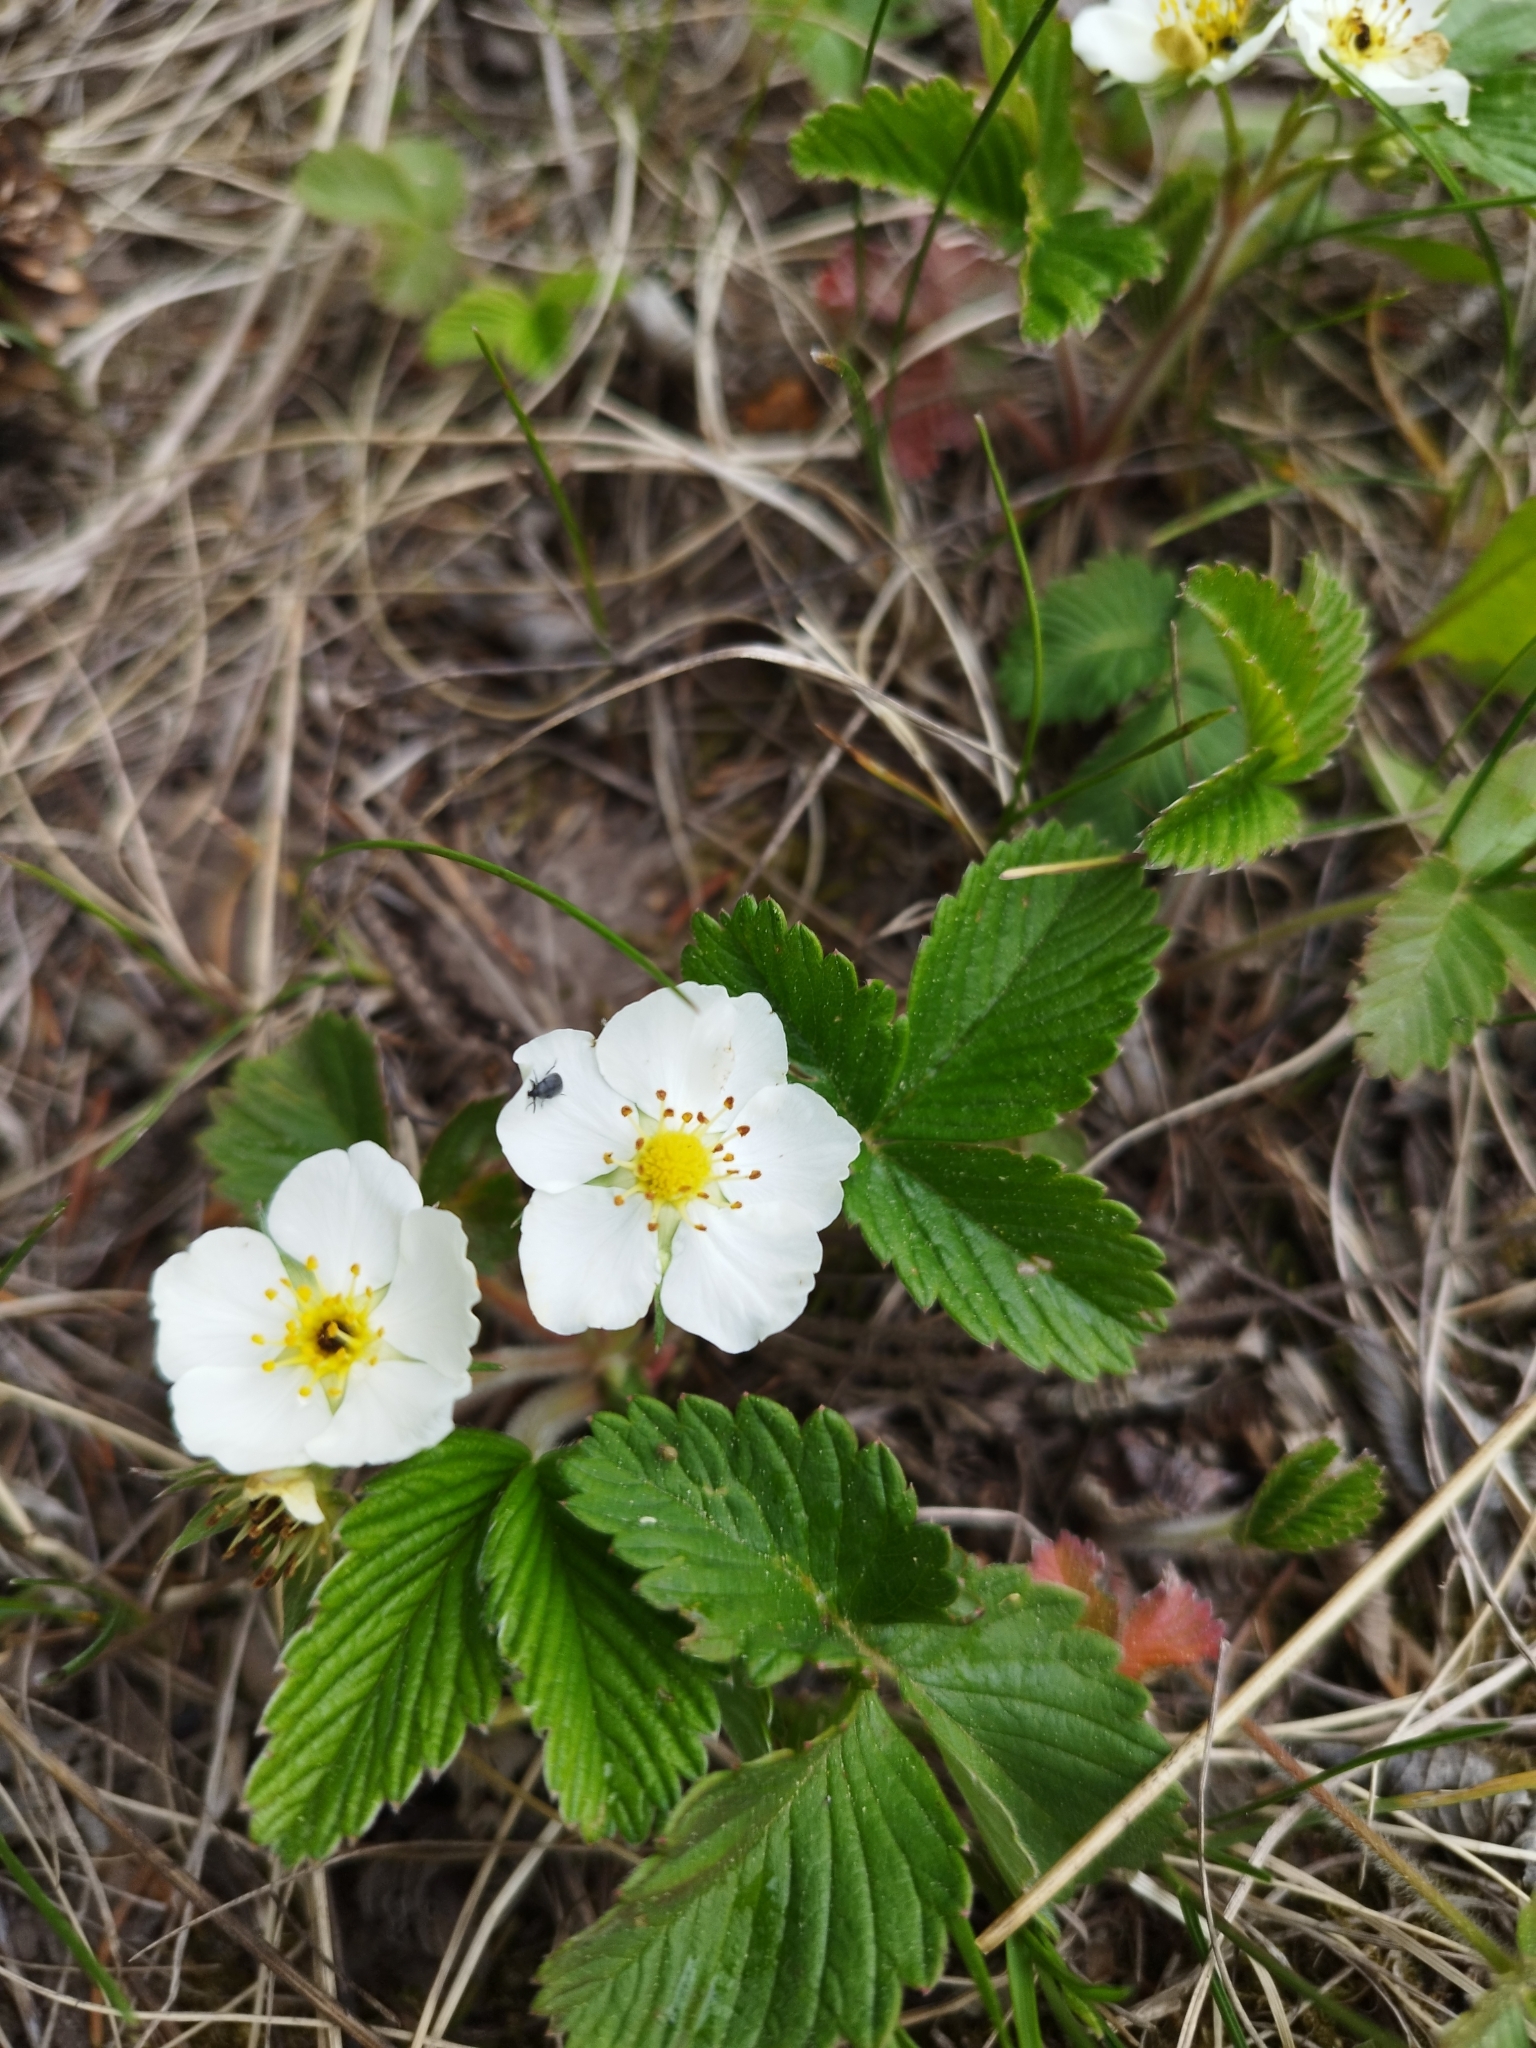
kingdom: Plantae
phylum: Tracheophyta
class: Magnoliopsida
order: Rosales
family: Rosaceae
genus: Fragaria
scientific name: Fragaria viridis
